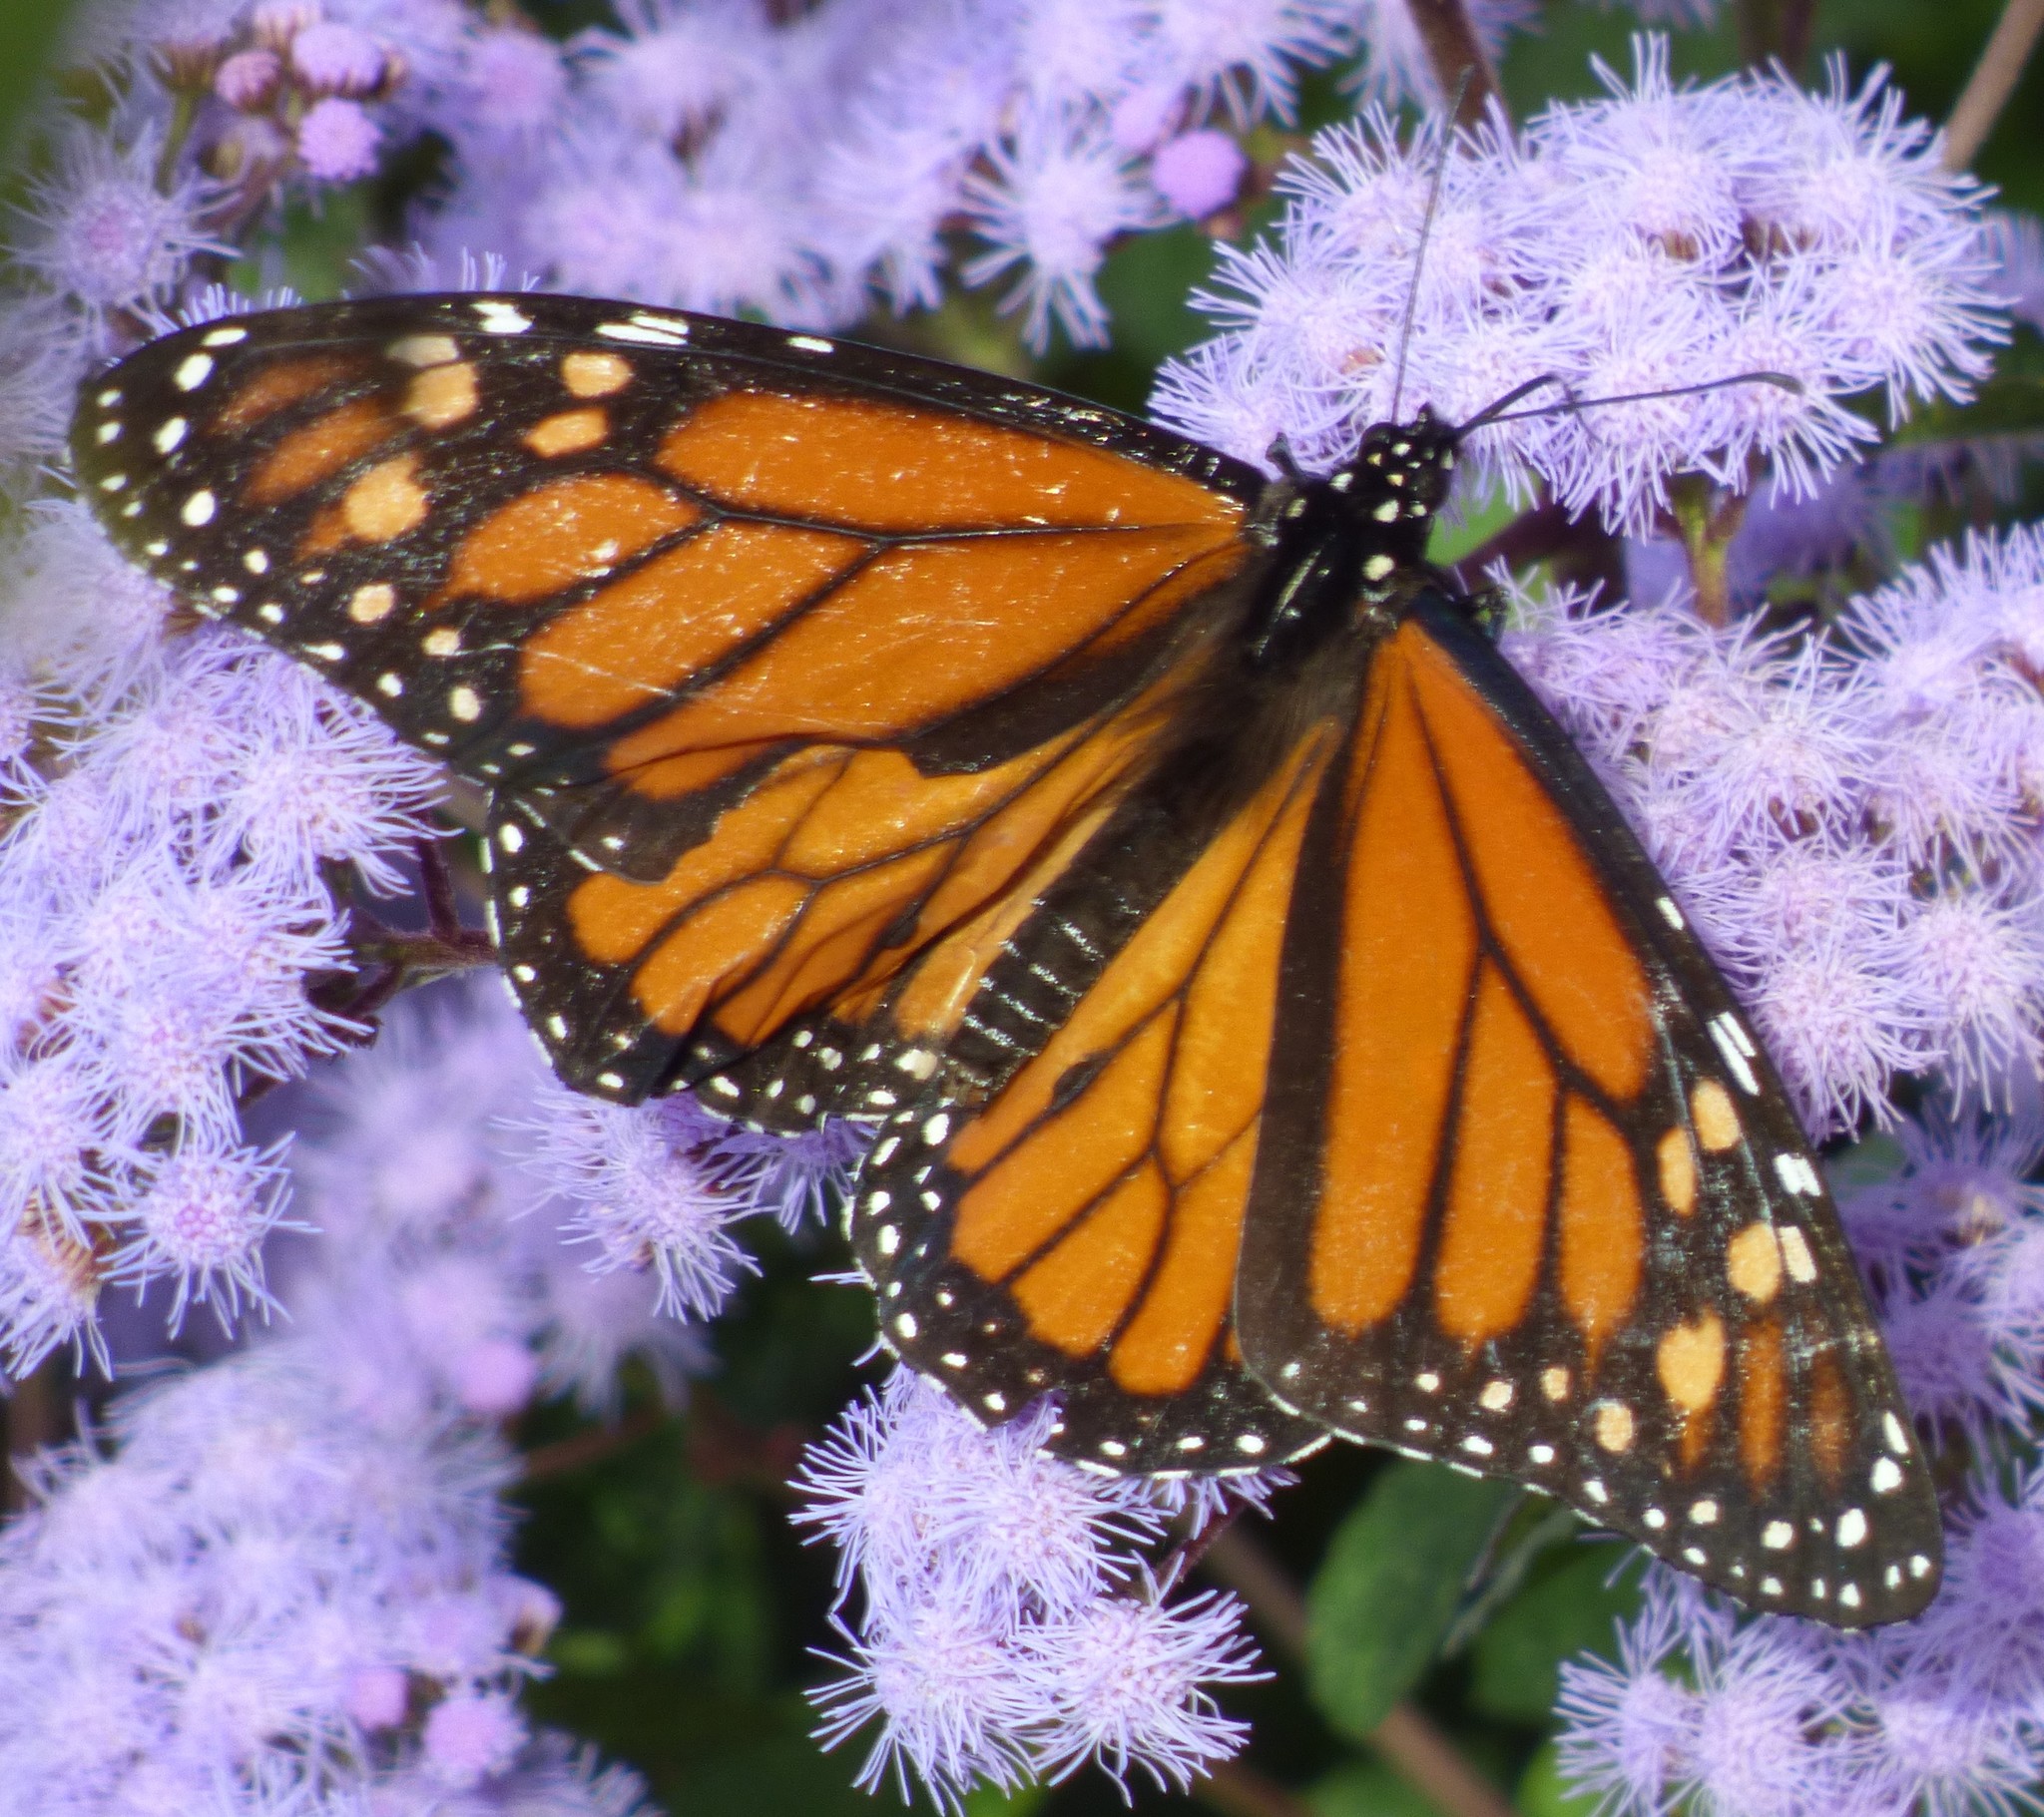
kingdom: Animalia
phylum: Arthropoda
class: Insecta
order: Lepidoptera
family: Nymphalidae
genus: Danaus
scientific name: Danaus plexippus
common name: Monarch
